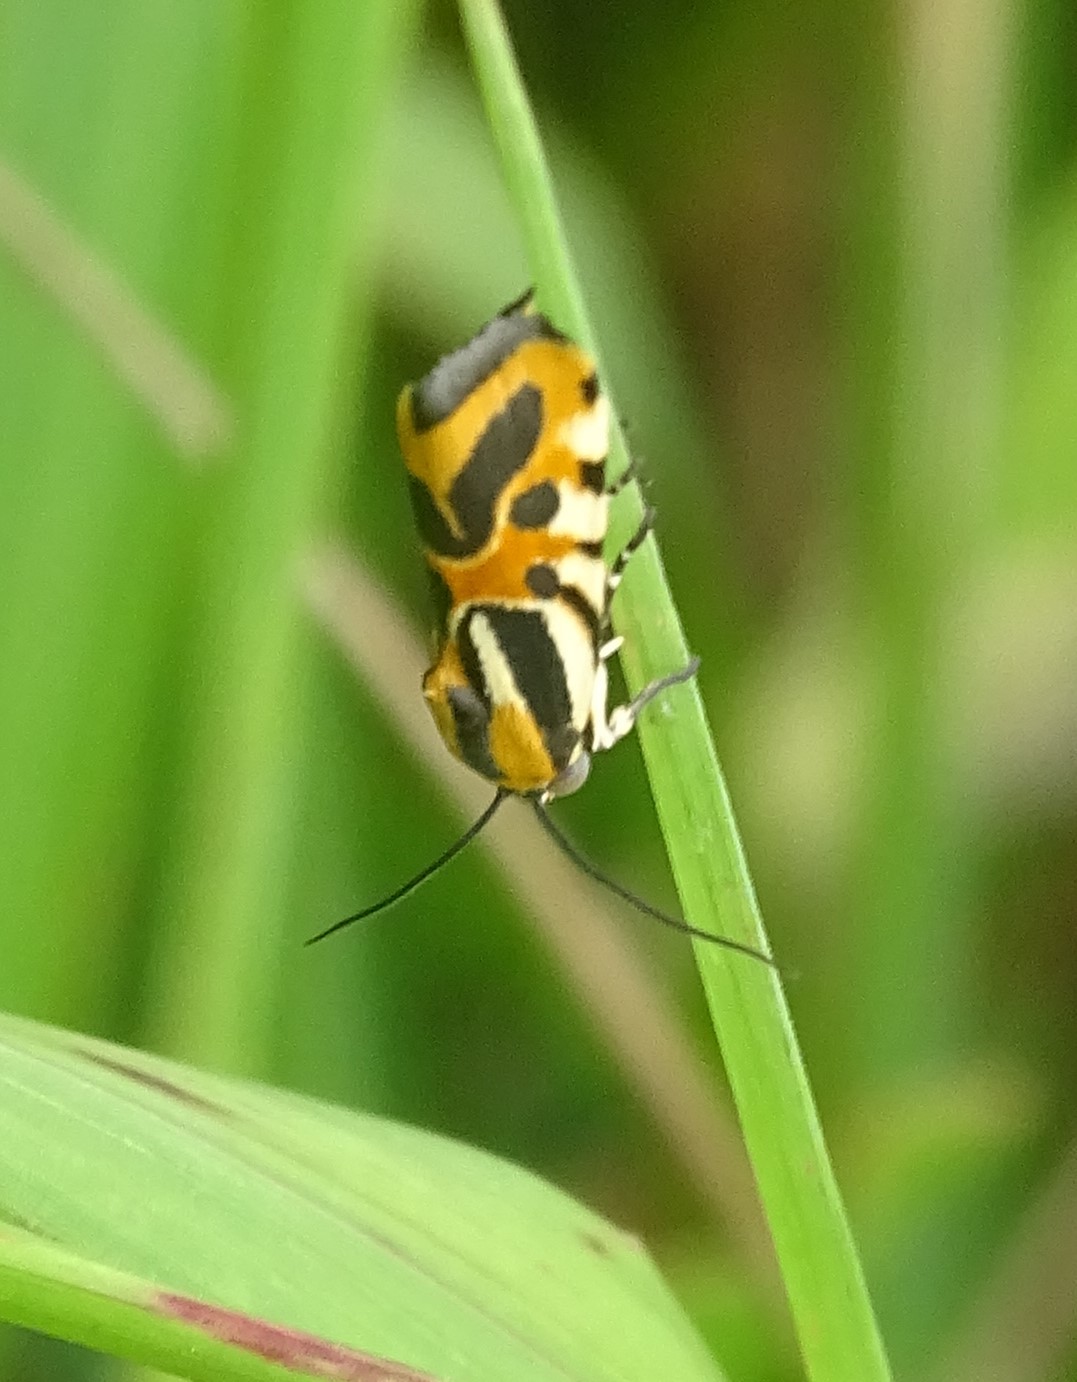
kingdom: Animalia
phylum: Arthropoda
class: Insecta
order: Lepidoptera
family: Noctuidae
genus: Acontia
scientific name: Acontia onagrus
